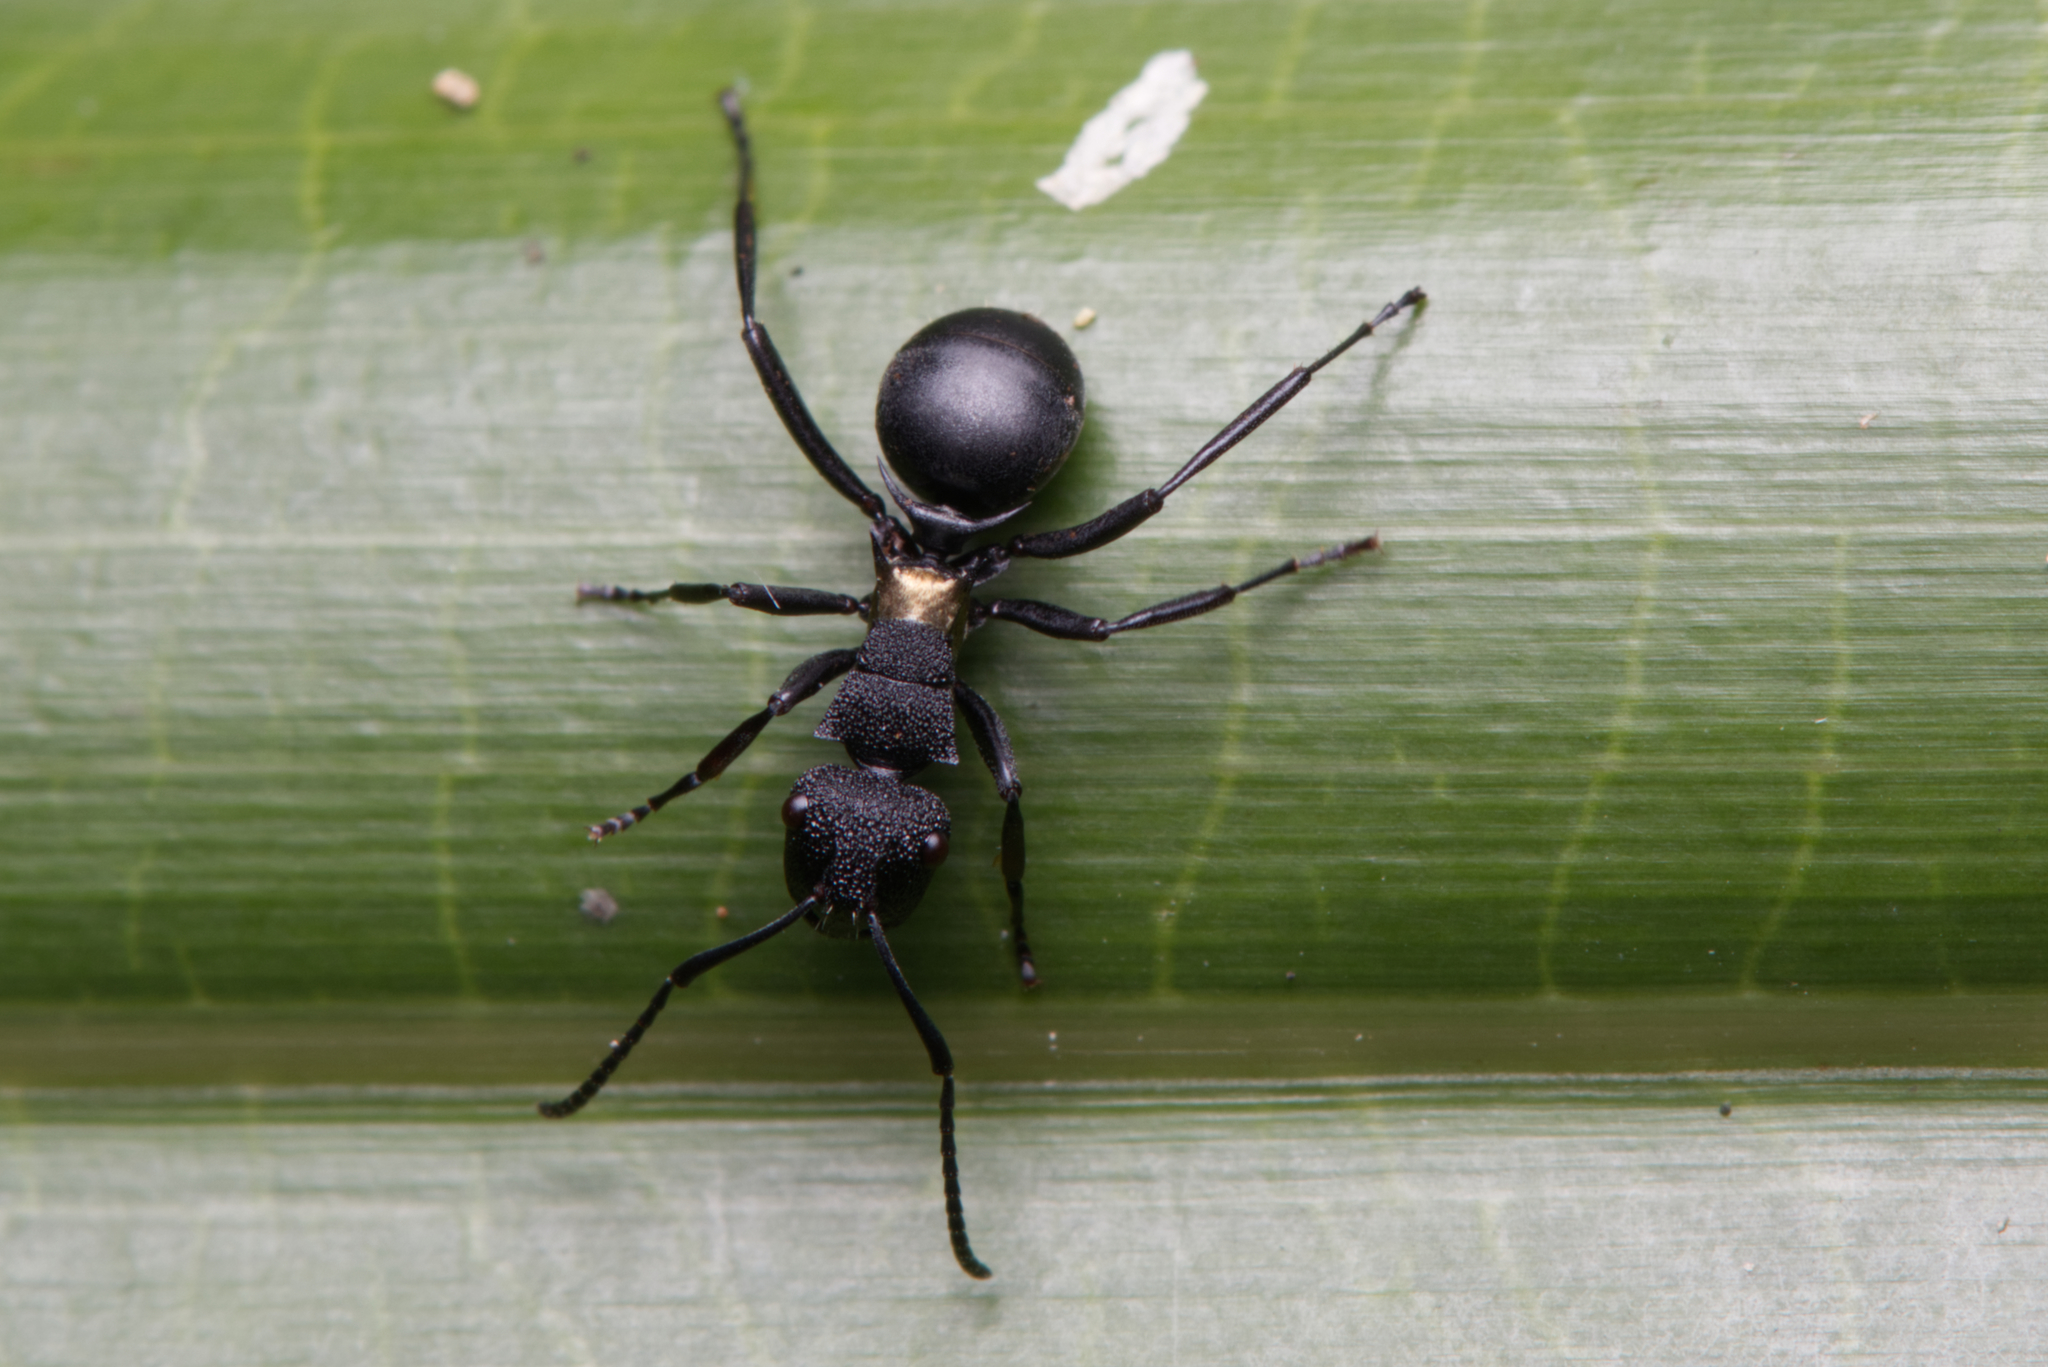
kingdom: Animalia
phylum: Arthropoda
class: Insecta
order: Hymenoptera
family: Formicidae
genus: Polyrhachis
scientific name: Polyrhachis machaon
